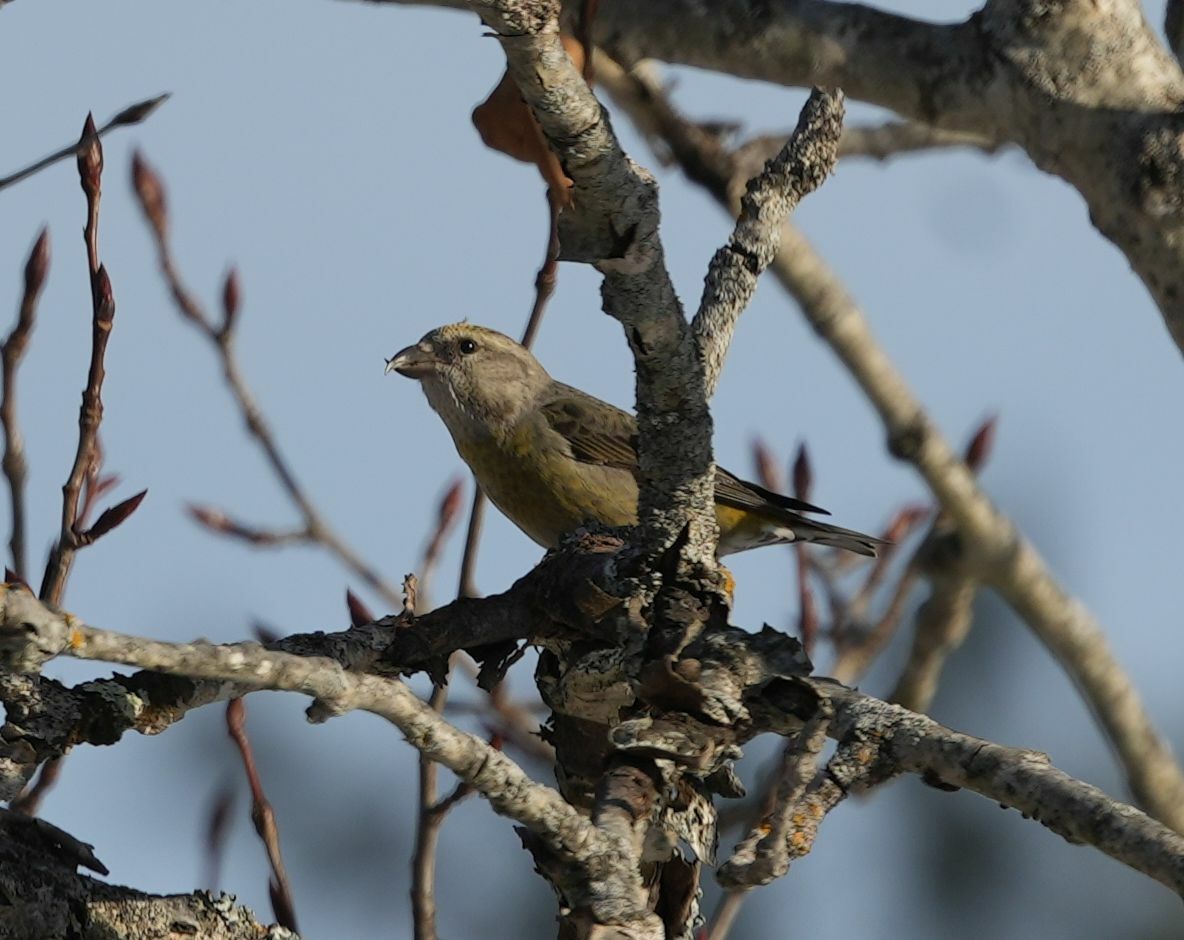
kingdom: Animalia
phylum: Chordata
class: Aves
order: Passeriformes
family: Fringillidae
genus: Loxia
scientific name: Loxia curvirostra
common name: Red crossbill
